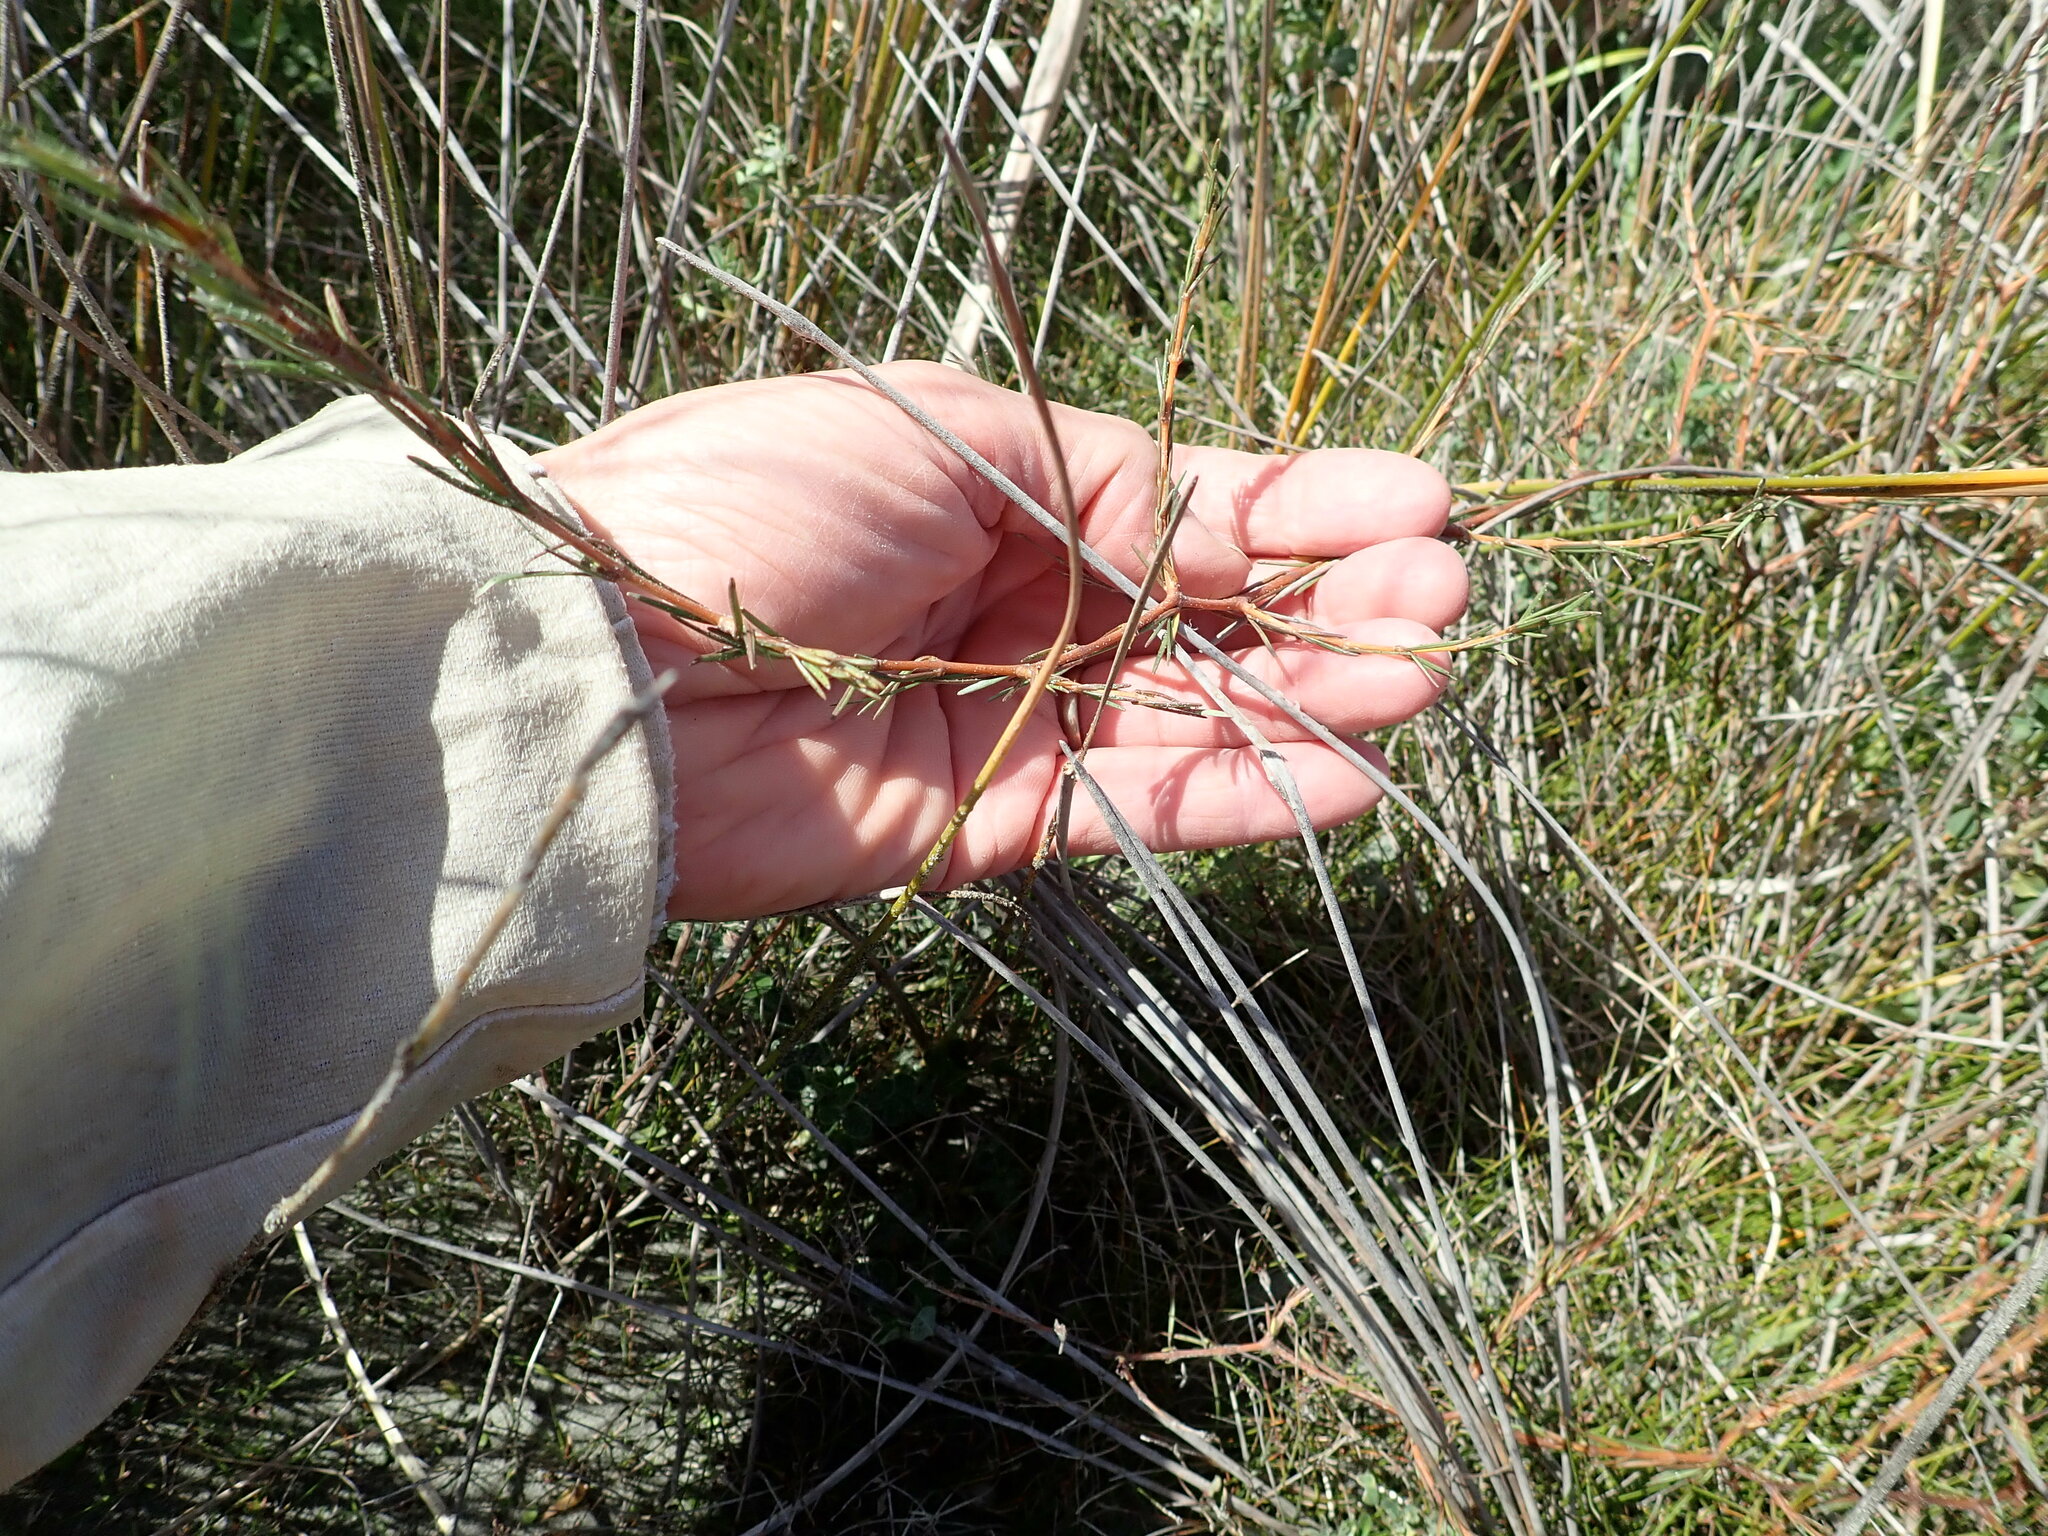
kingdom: Plantae
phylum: Tracheophyta
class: Magnoliopsida
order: Gentianales
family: Rubiaceae
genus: Coprosma
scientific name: Coprosma acerosa
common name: Sand coprosma
